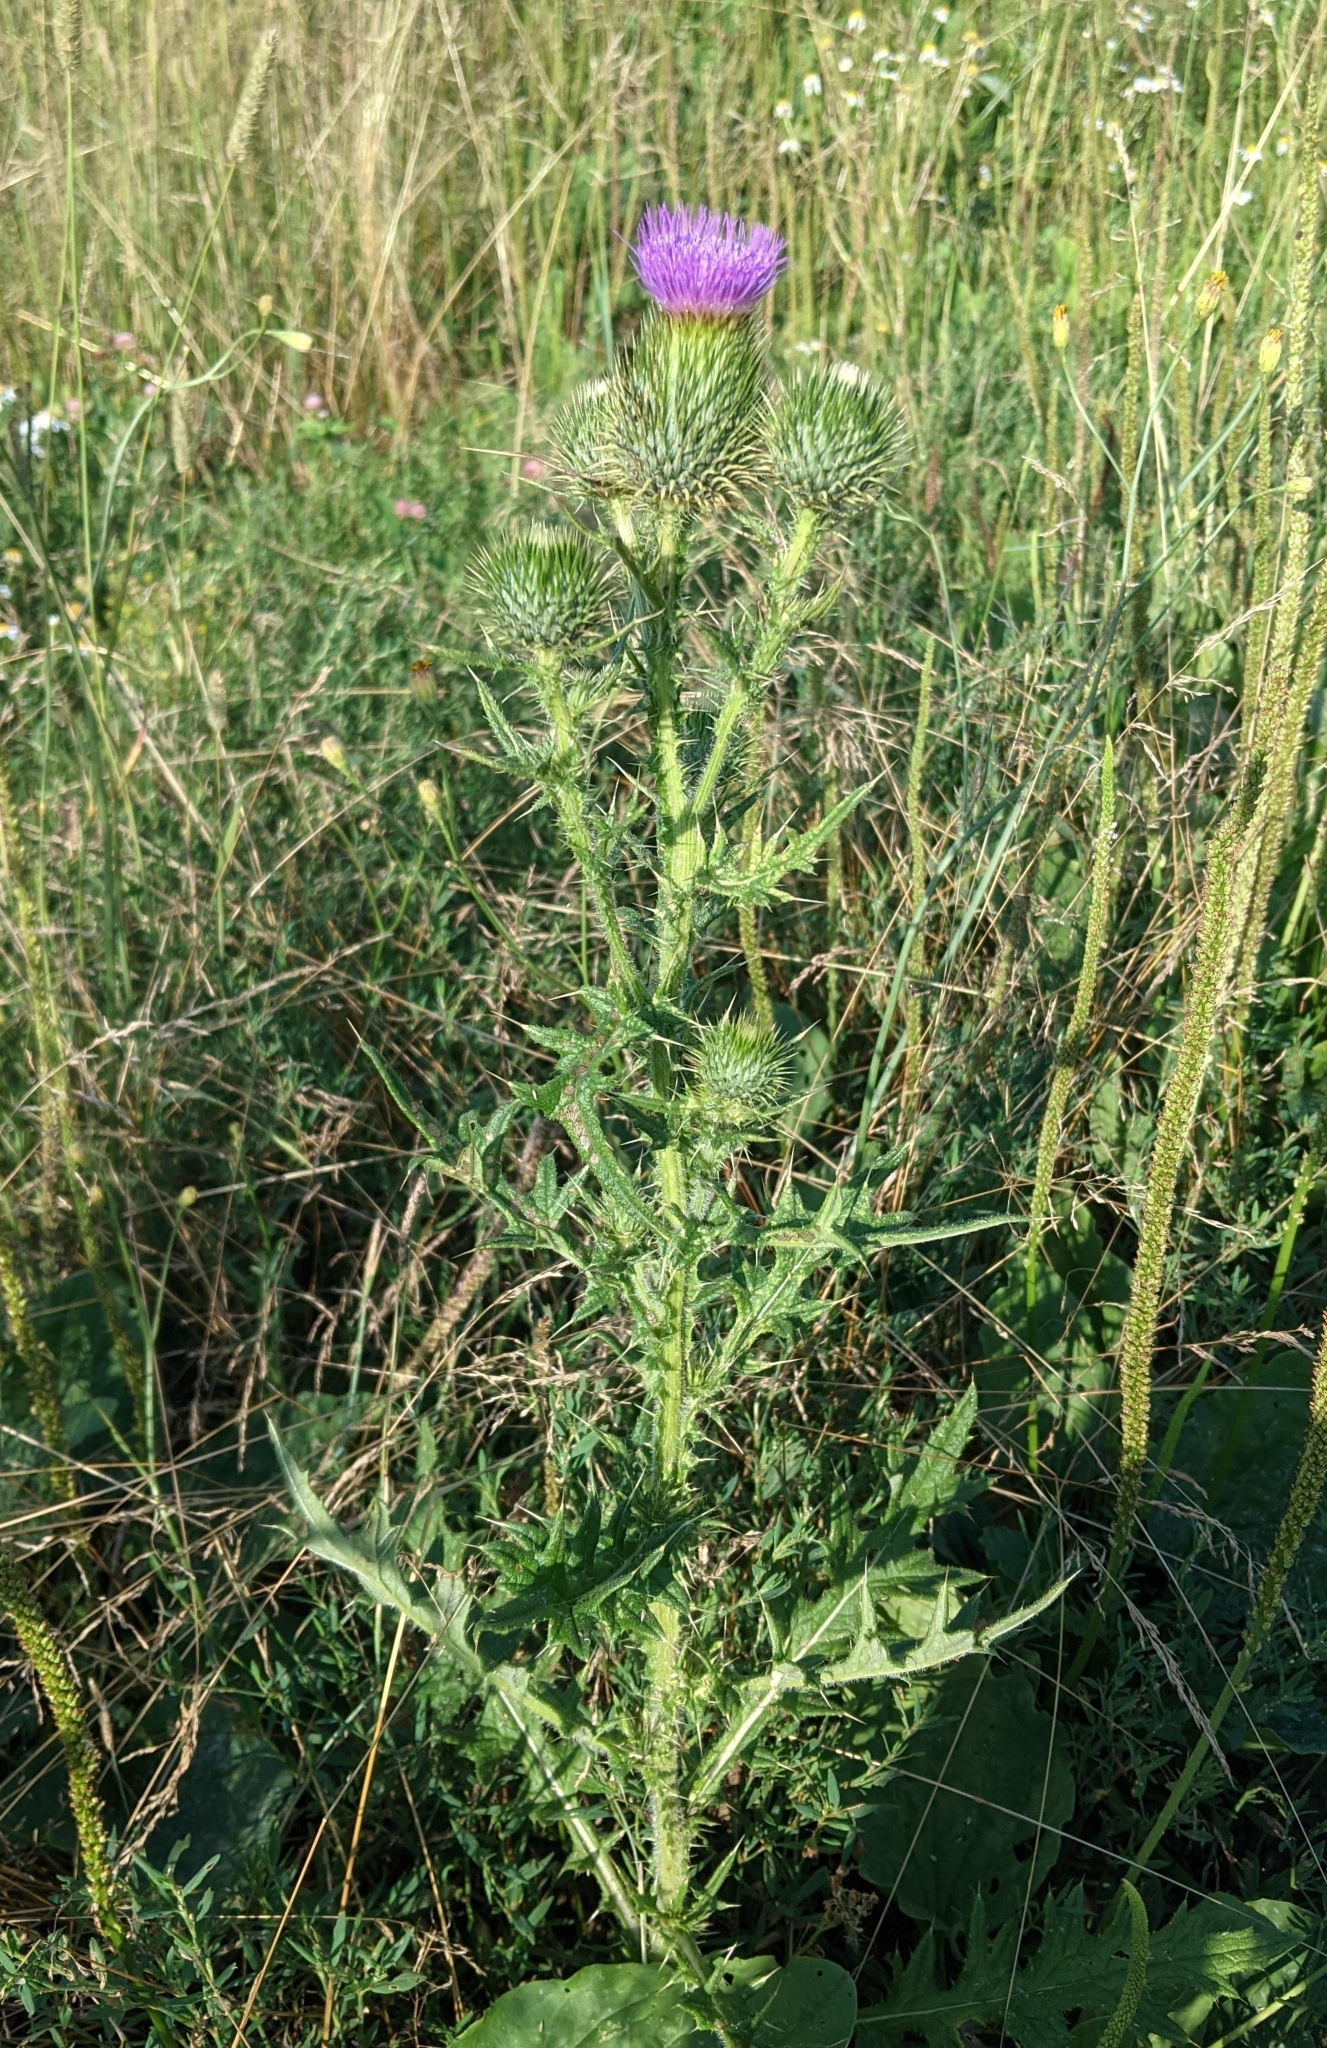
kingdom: Plantae
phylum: Tracheophyta
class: Magnoliopsida
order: Asterales
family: Asteraceae
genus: Cirsium
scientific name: Cirsium vulgare
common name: Bull thistle
